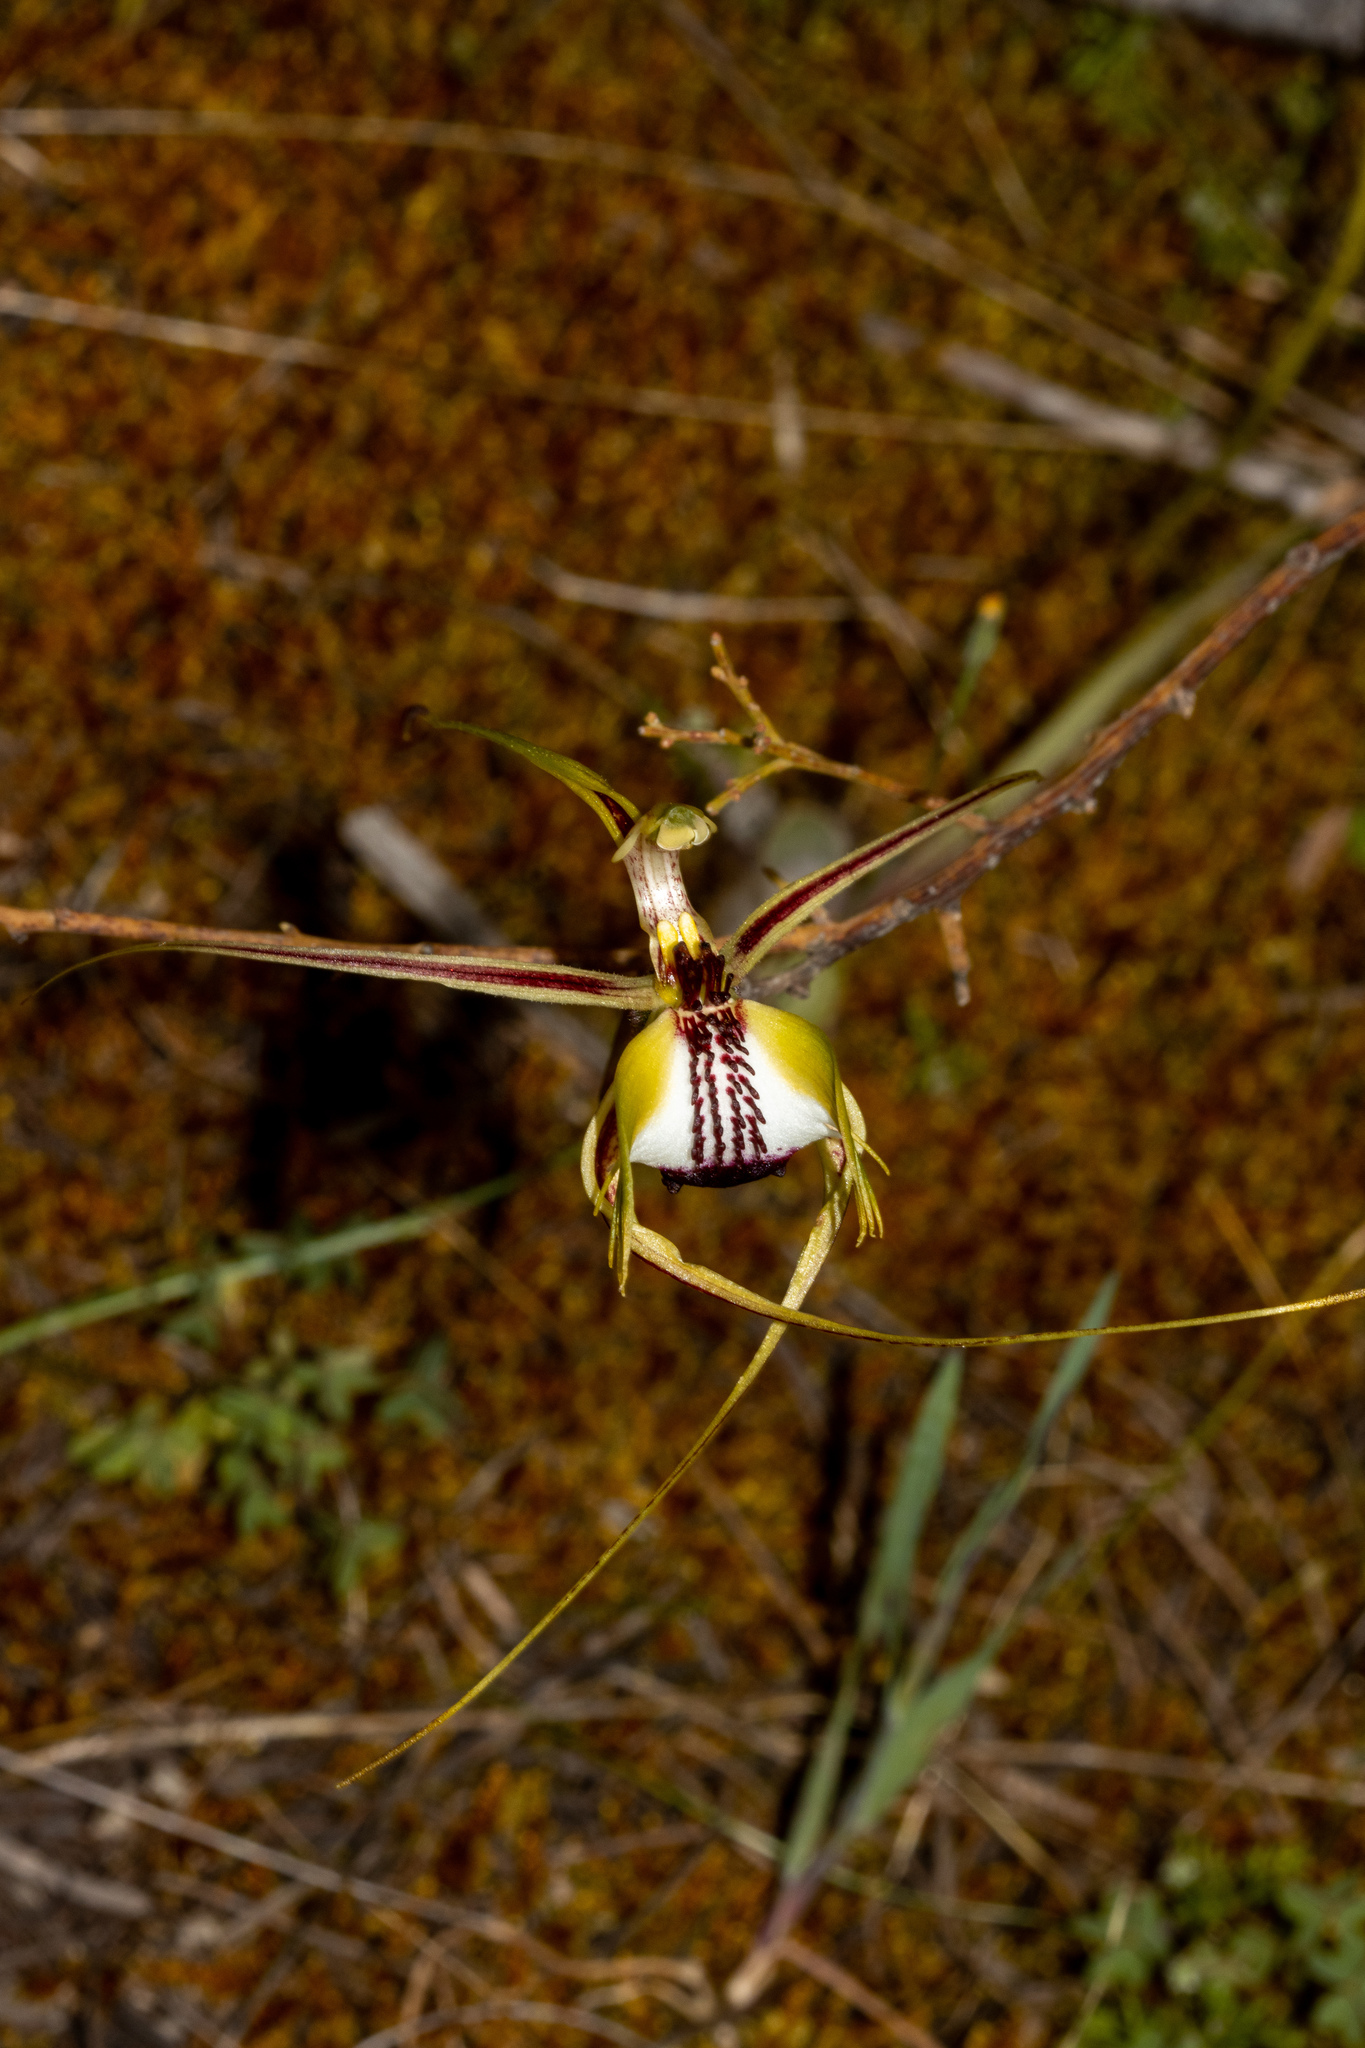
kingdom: Plantae
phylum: Tracheophyta
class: Liliopsida
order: Asparagales
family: Orchidaceae
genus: Caladenia
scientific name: Caladenia tentaculata
